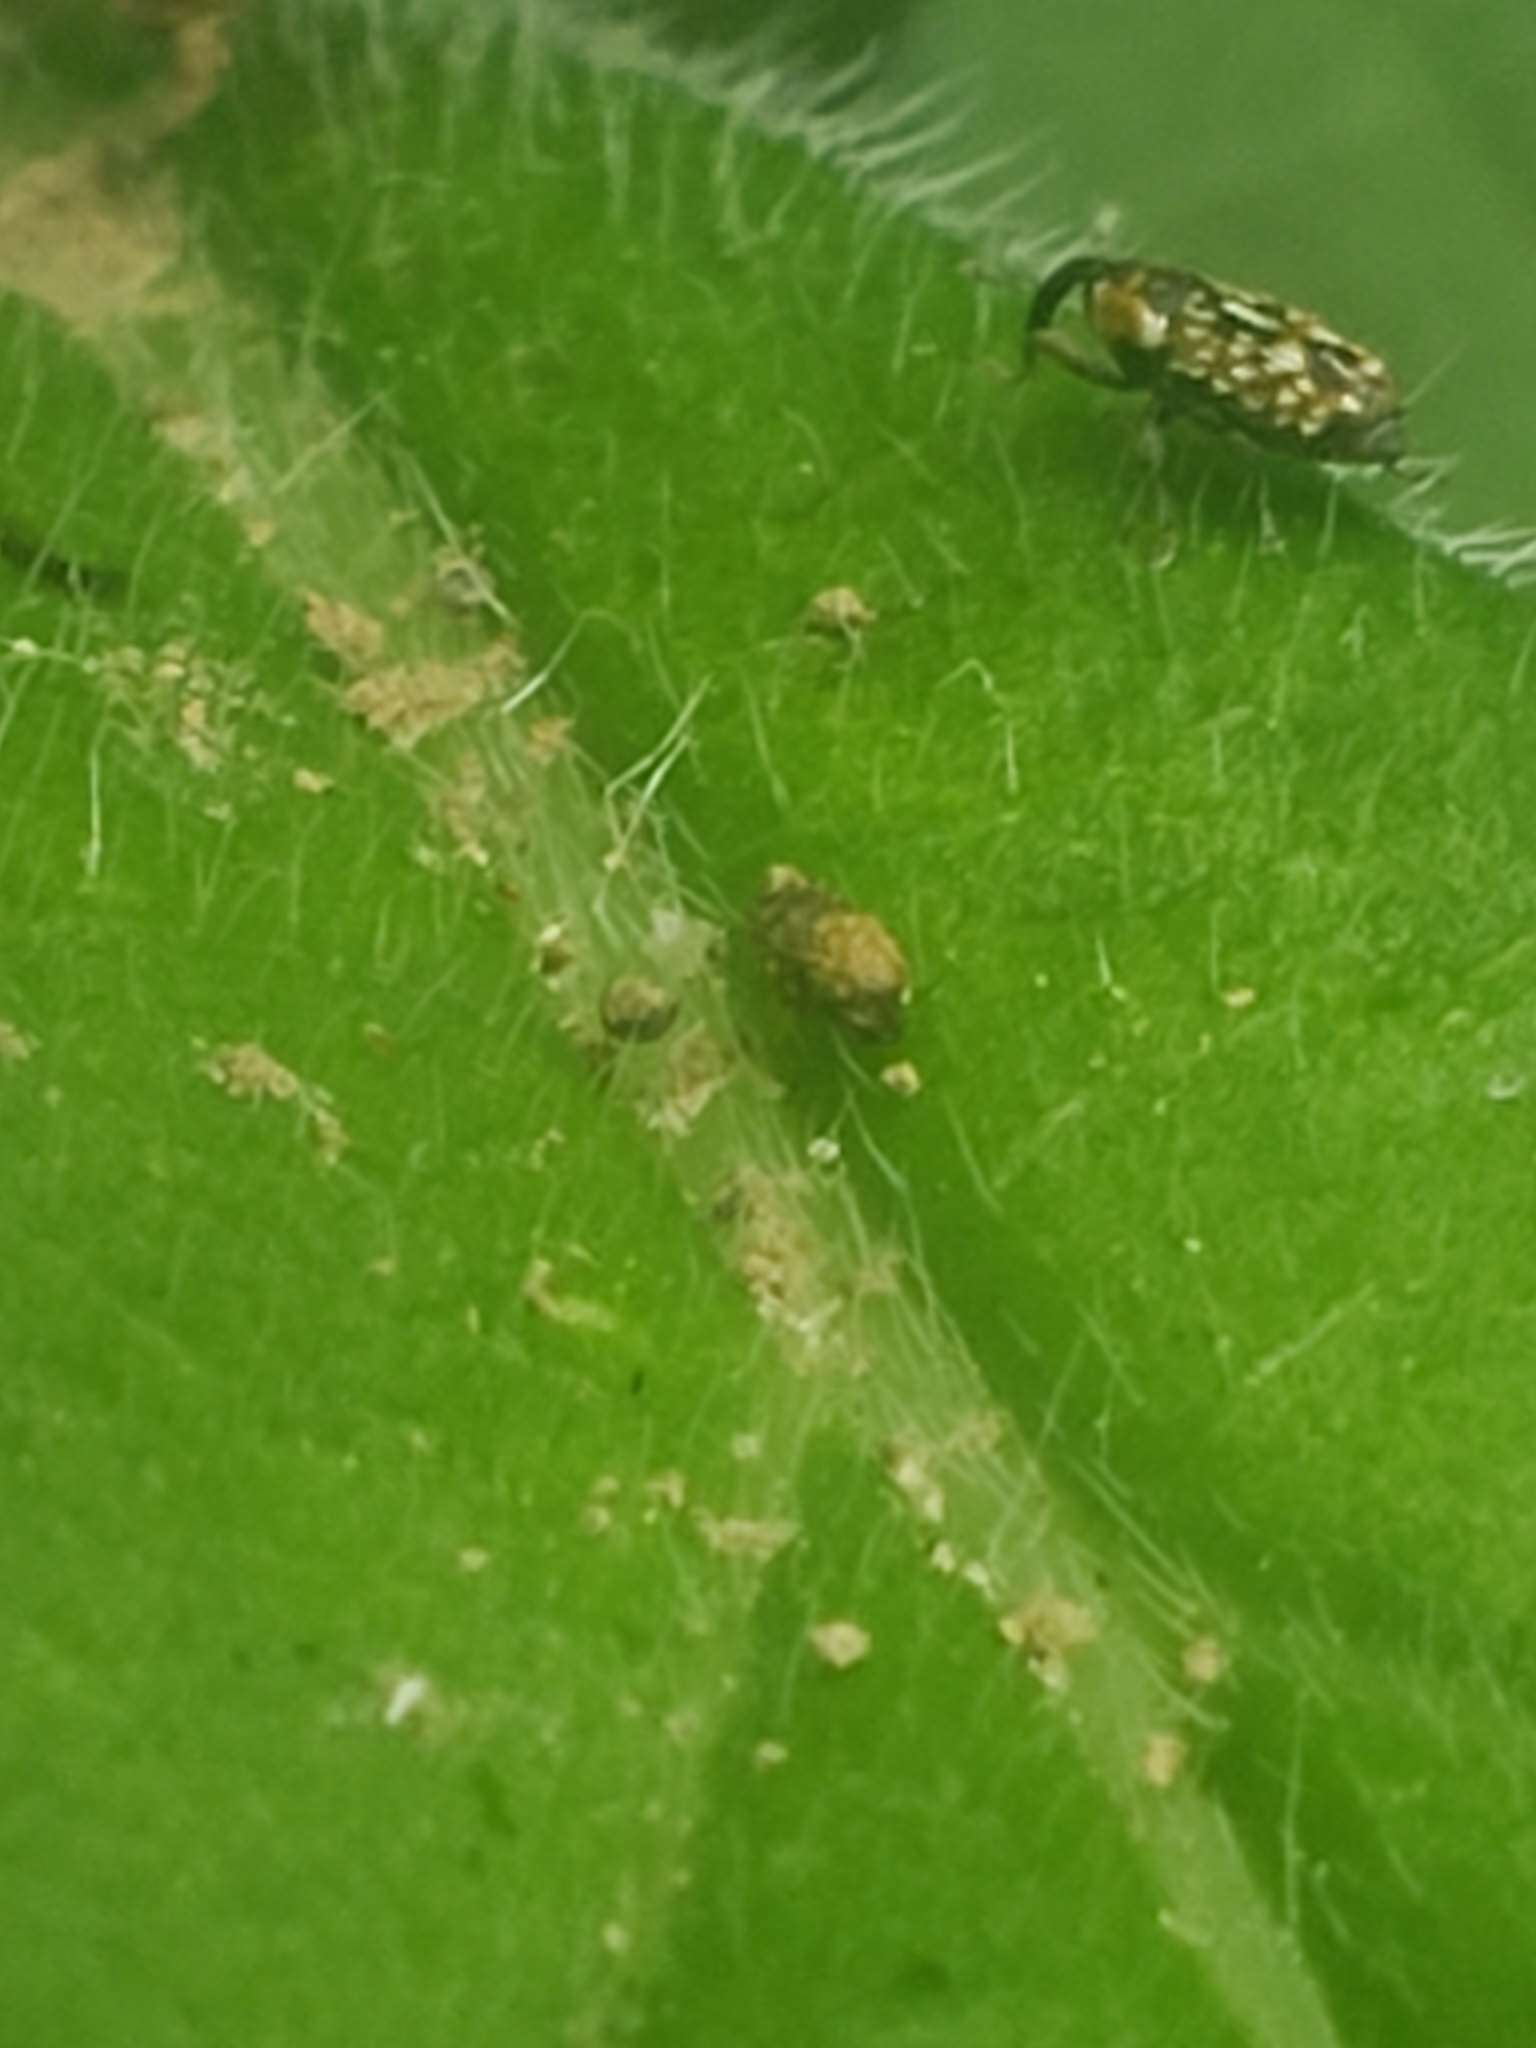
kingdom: Animalia
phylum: Arthropoda
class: Insecta
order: Coleoptera
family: Curculionidae
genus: Cosmobaris
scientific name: Cosmobaris scolopacea
